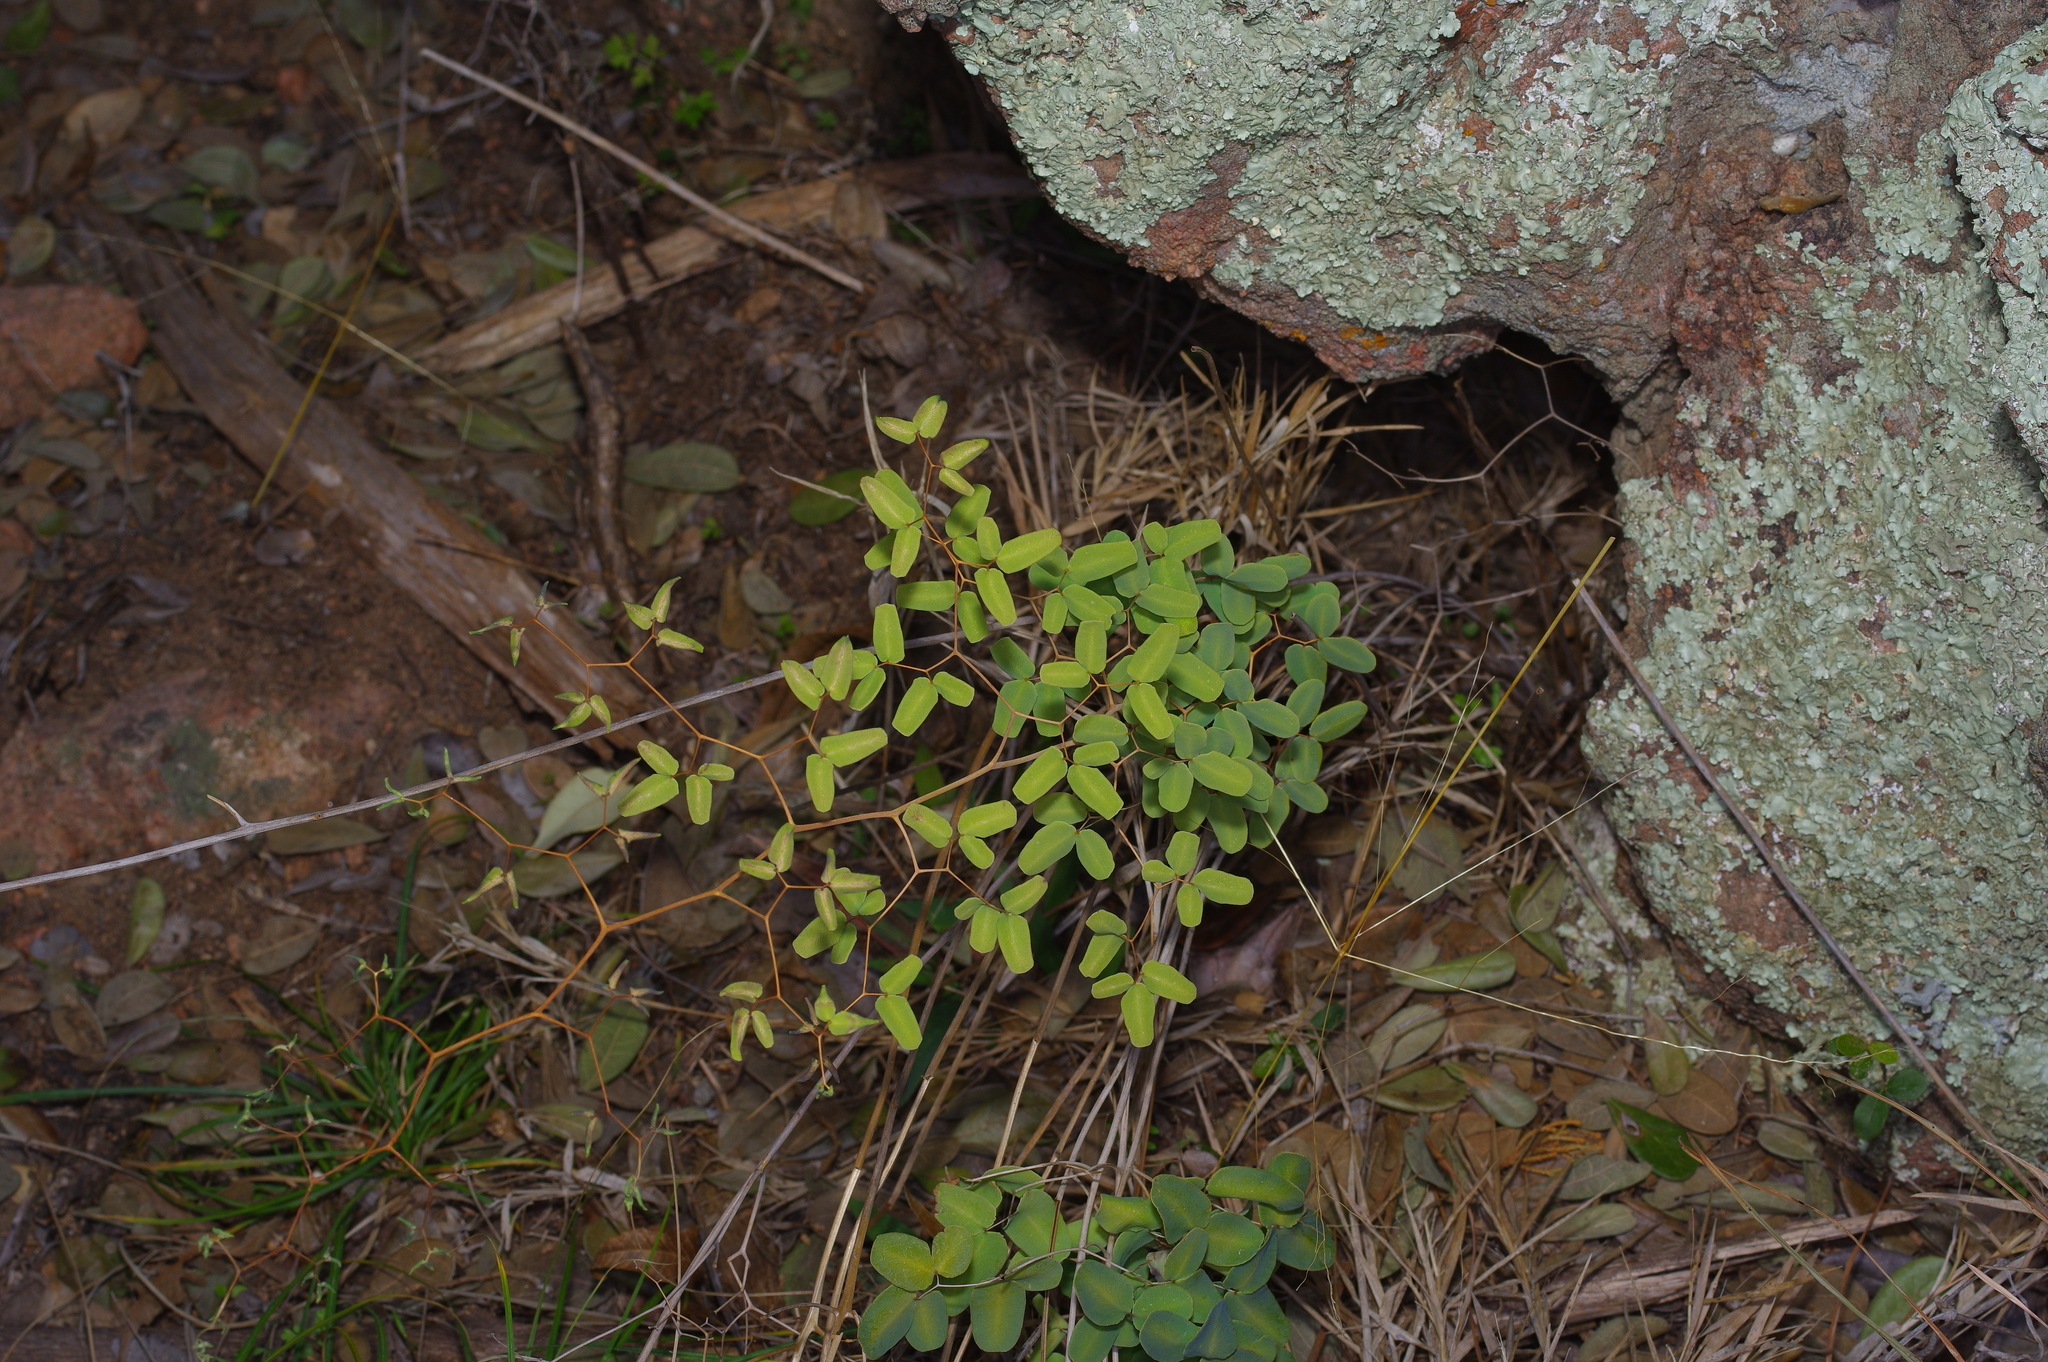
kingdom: Plantae
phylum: Tracheophyta
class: Polypodiopsida
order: Polypodiales
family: Pteridaceae
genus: Pellaea
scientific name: Pellaea ovata
